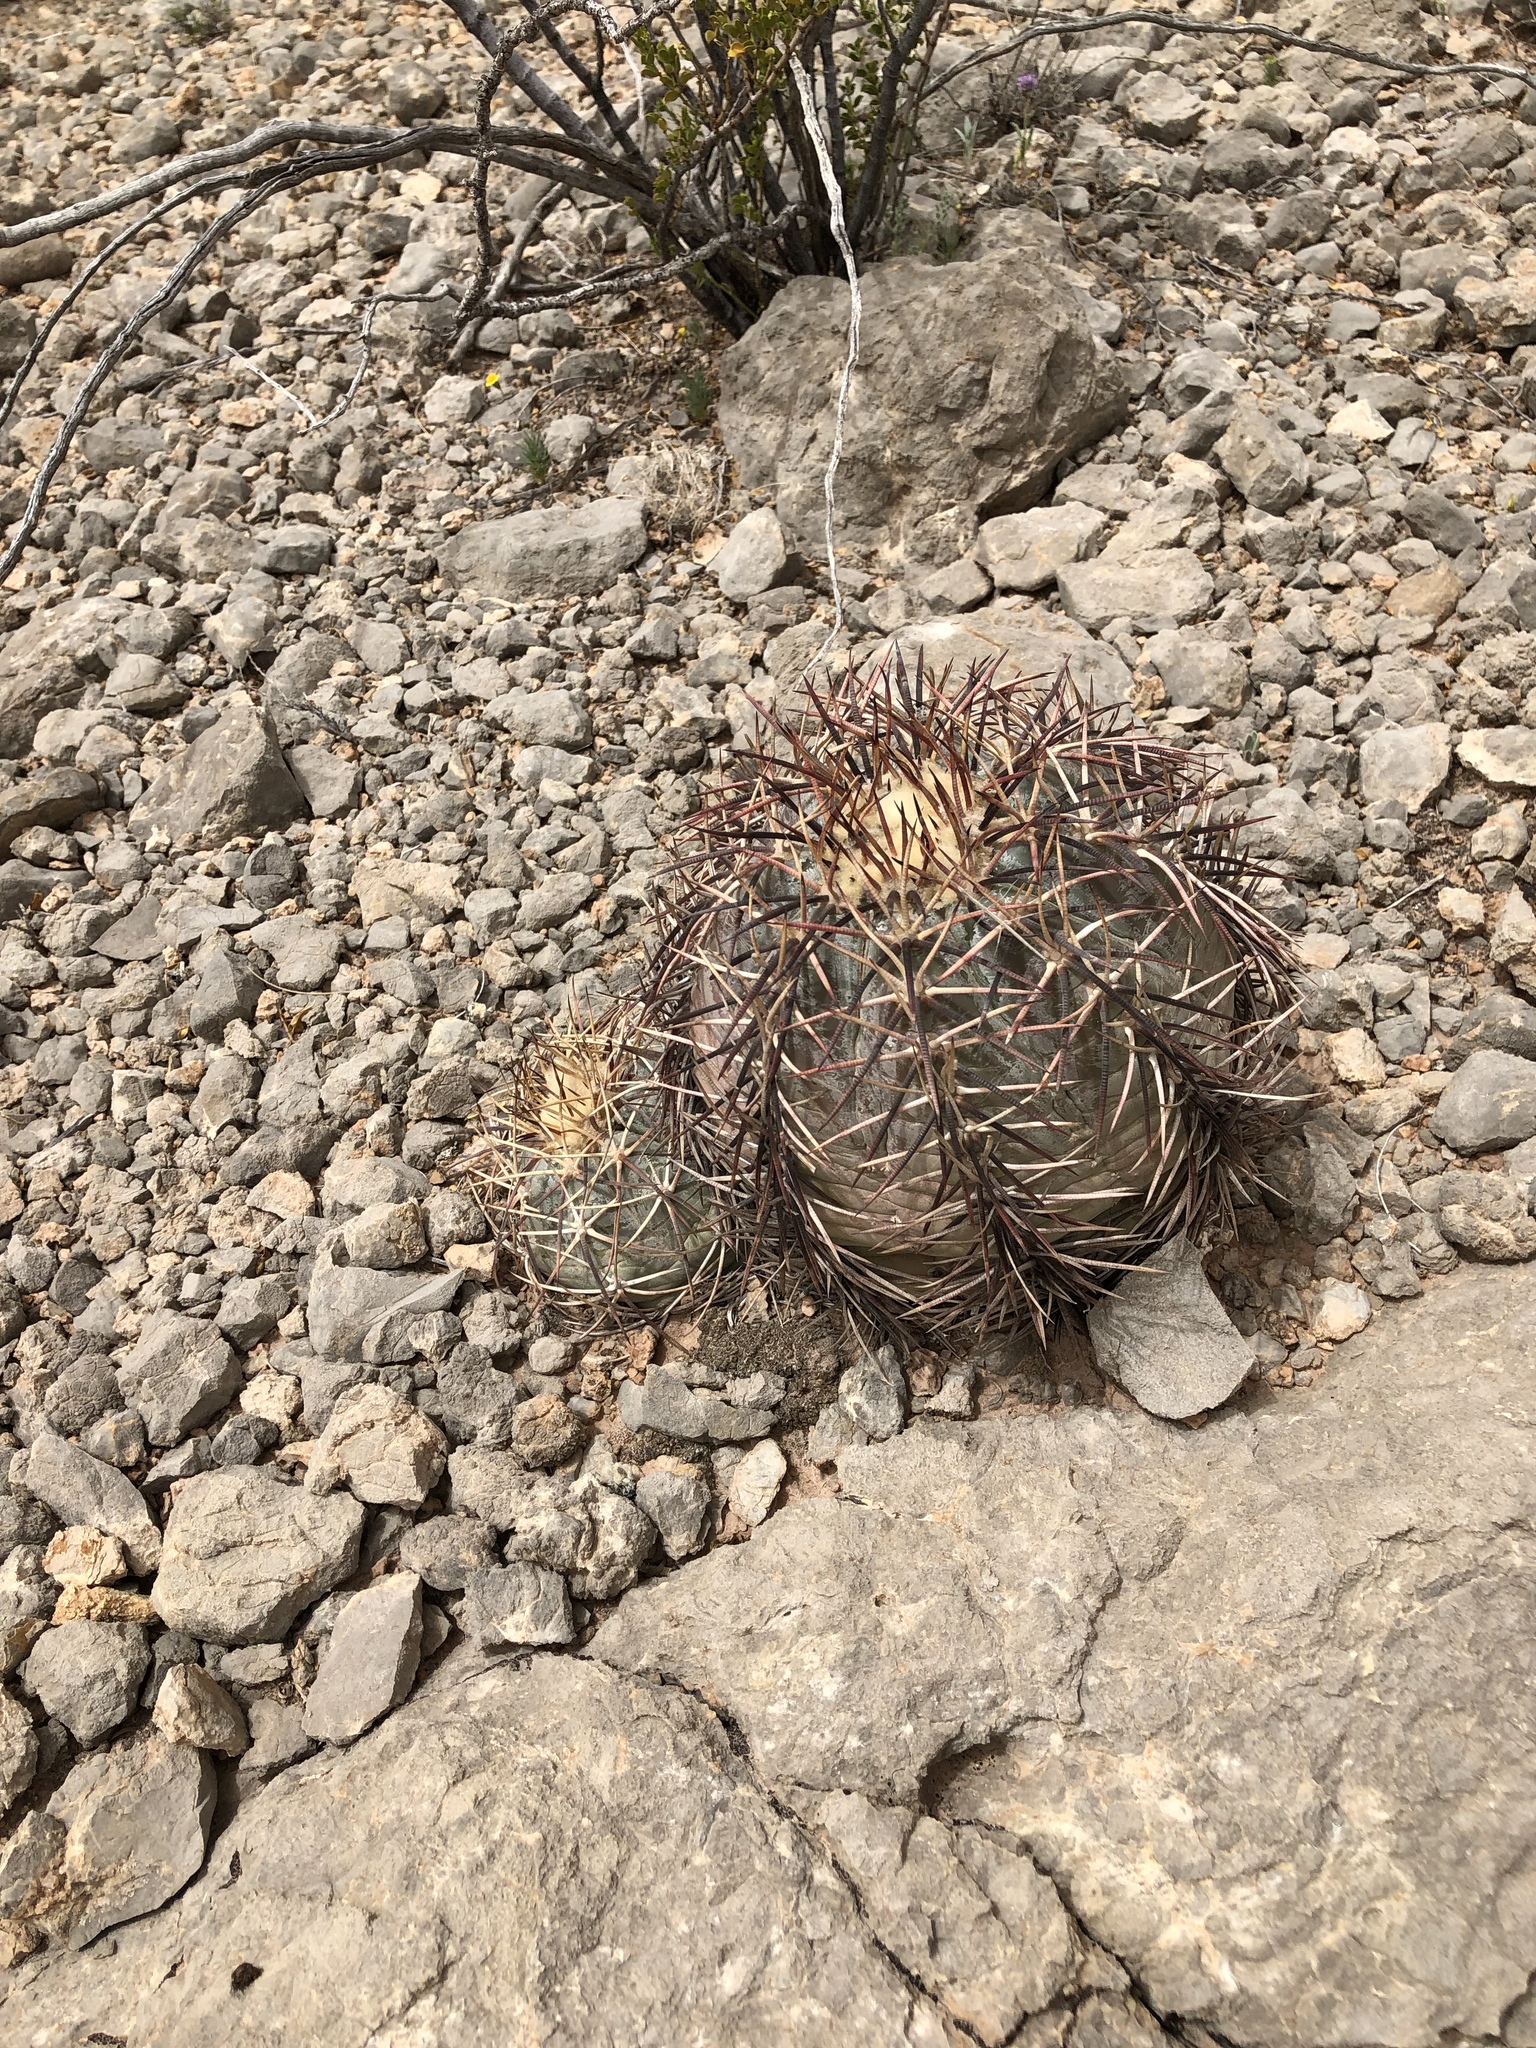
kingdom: Plantae
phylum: Tracheophyta
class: Magnoliopsida
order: Caryophyllales
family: Cactaceae
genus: Echinocactus
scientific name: Echinocactus horizonthalonius
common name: Devilshead
